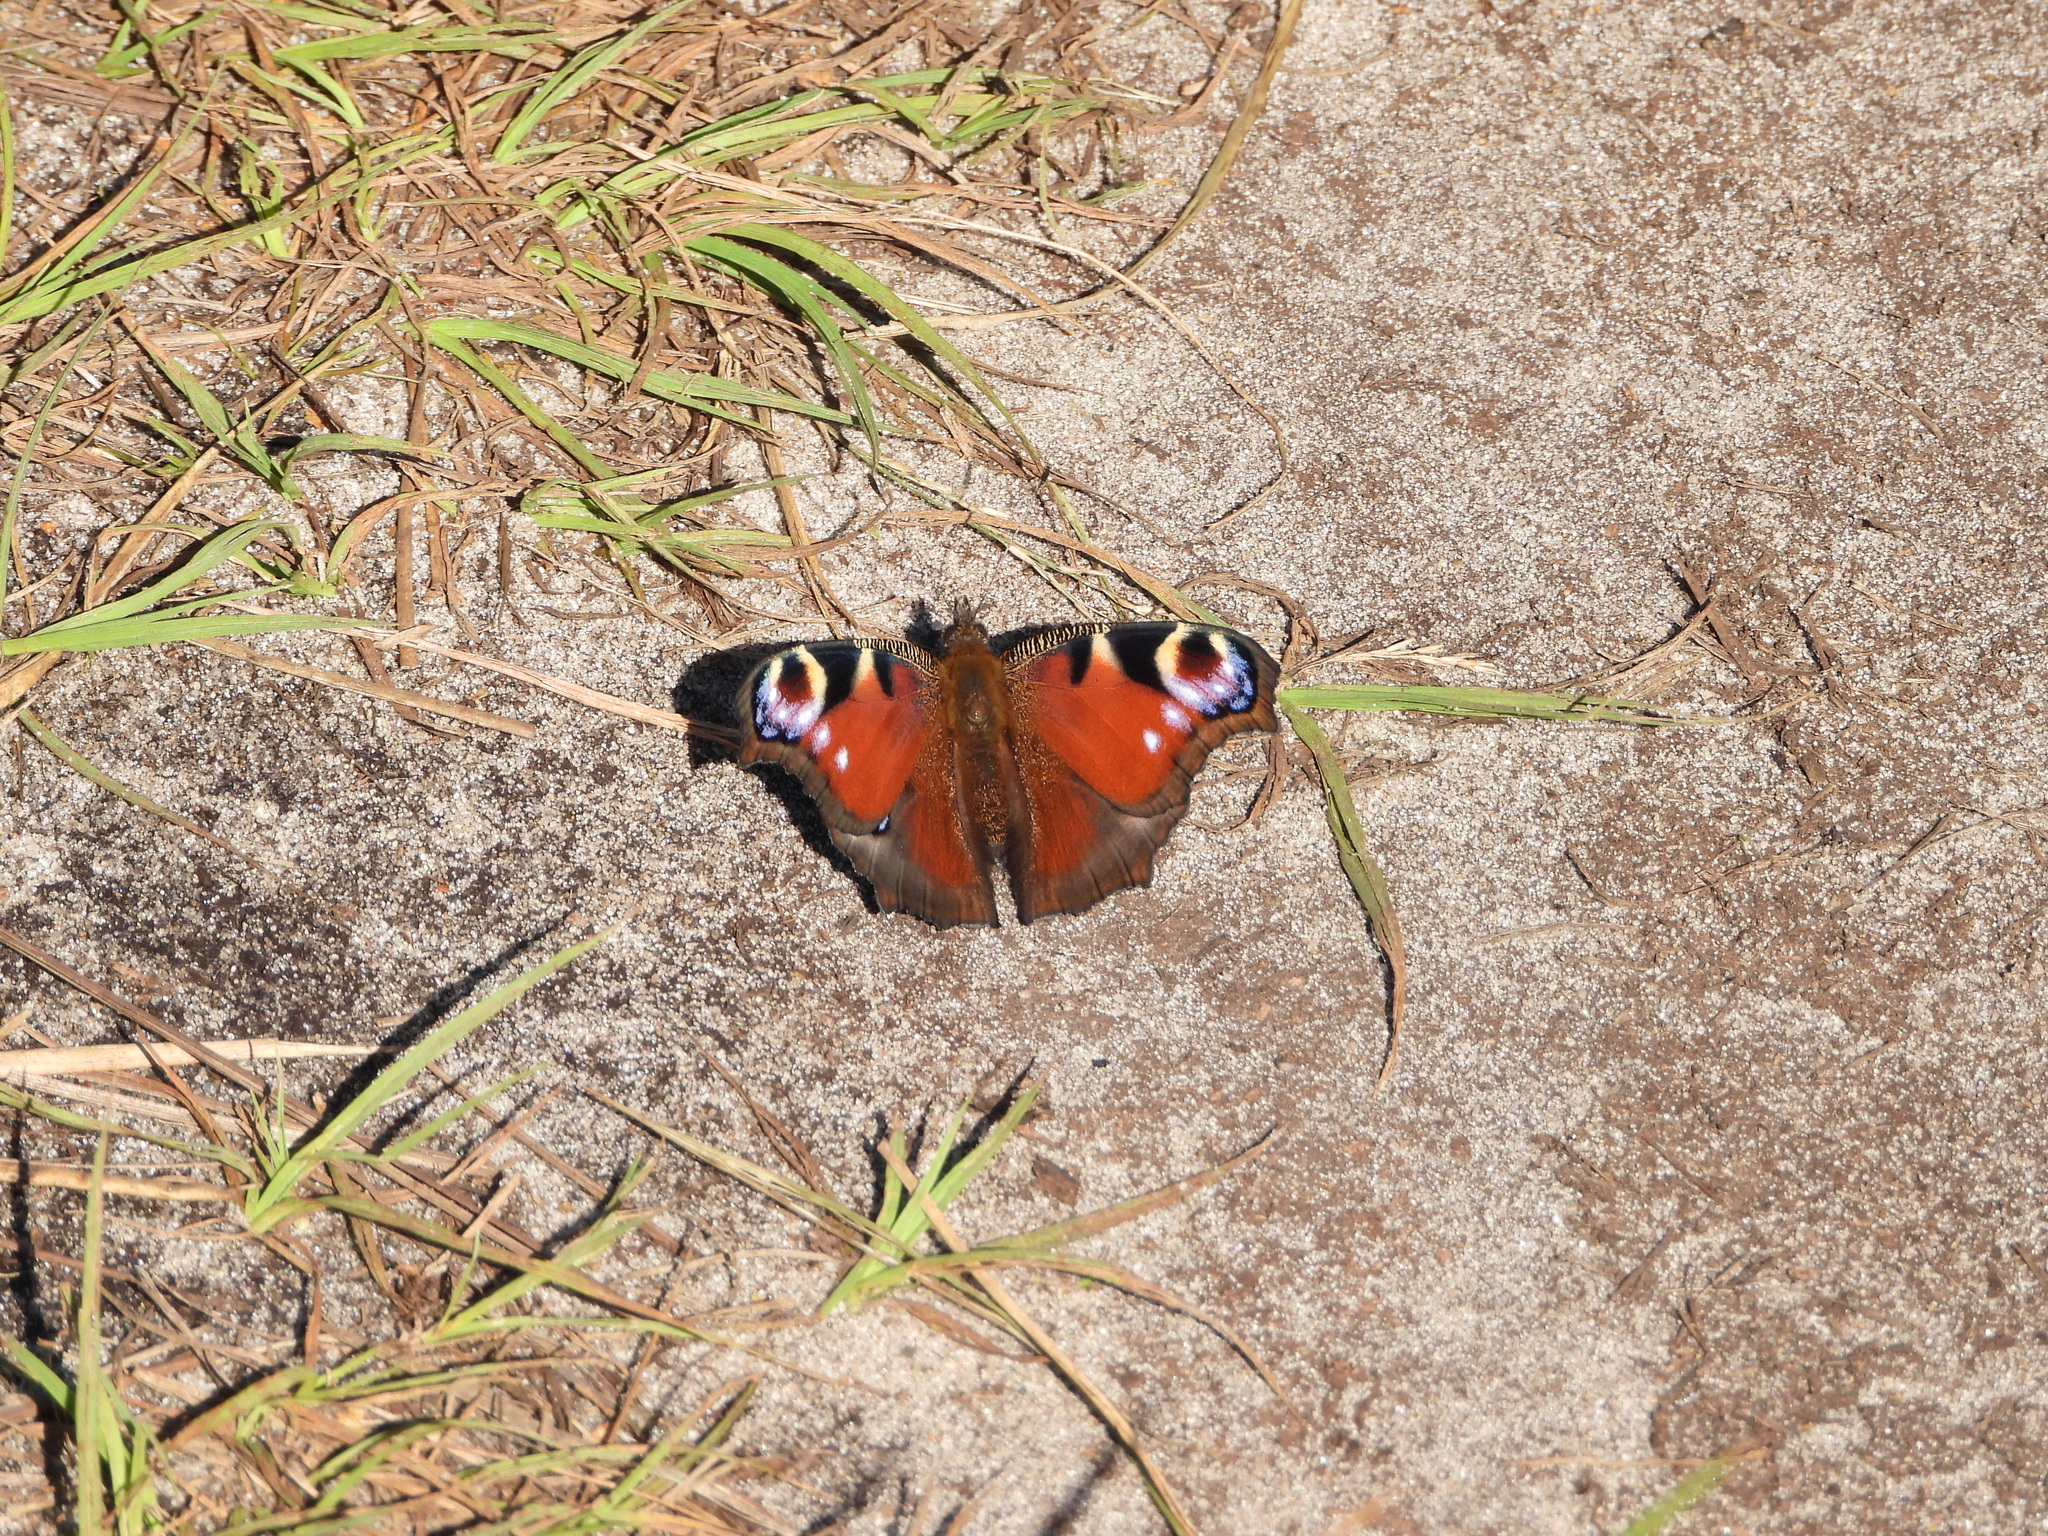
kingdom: Animalia
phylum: Arthropoda
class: Insecta
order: Lepidoptera
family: Nymphalidae
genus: Aglais
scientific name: Aglais io
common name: Peacock
